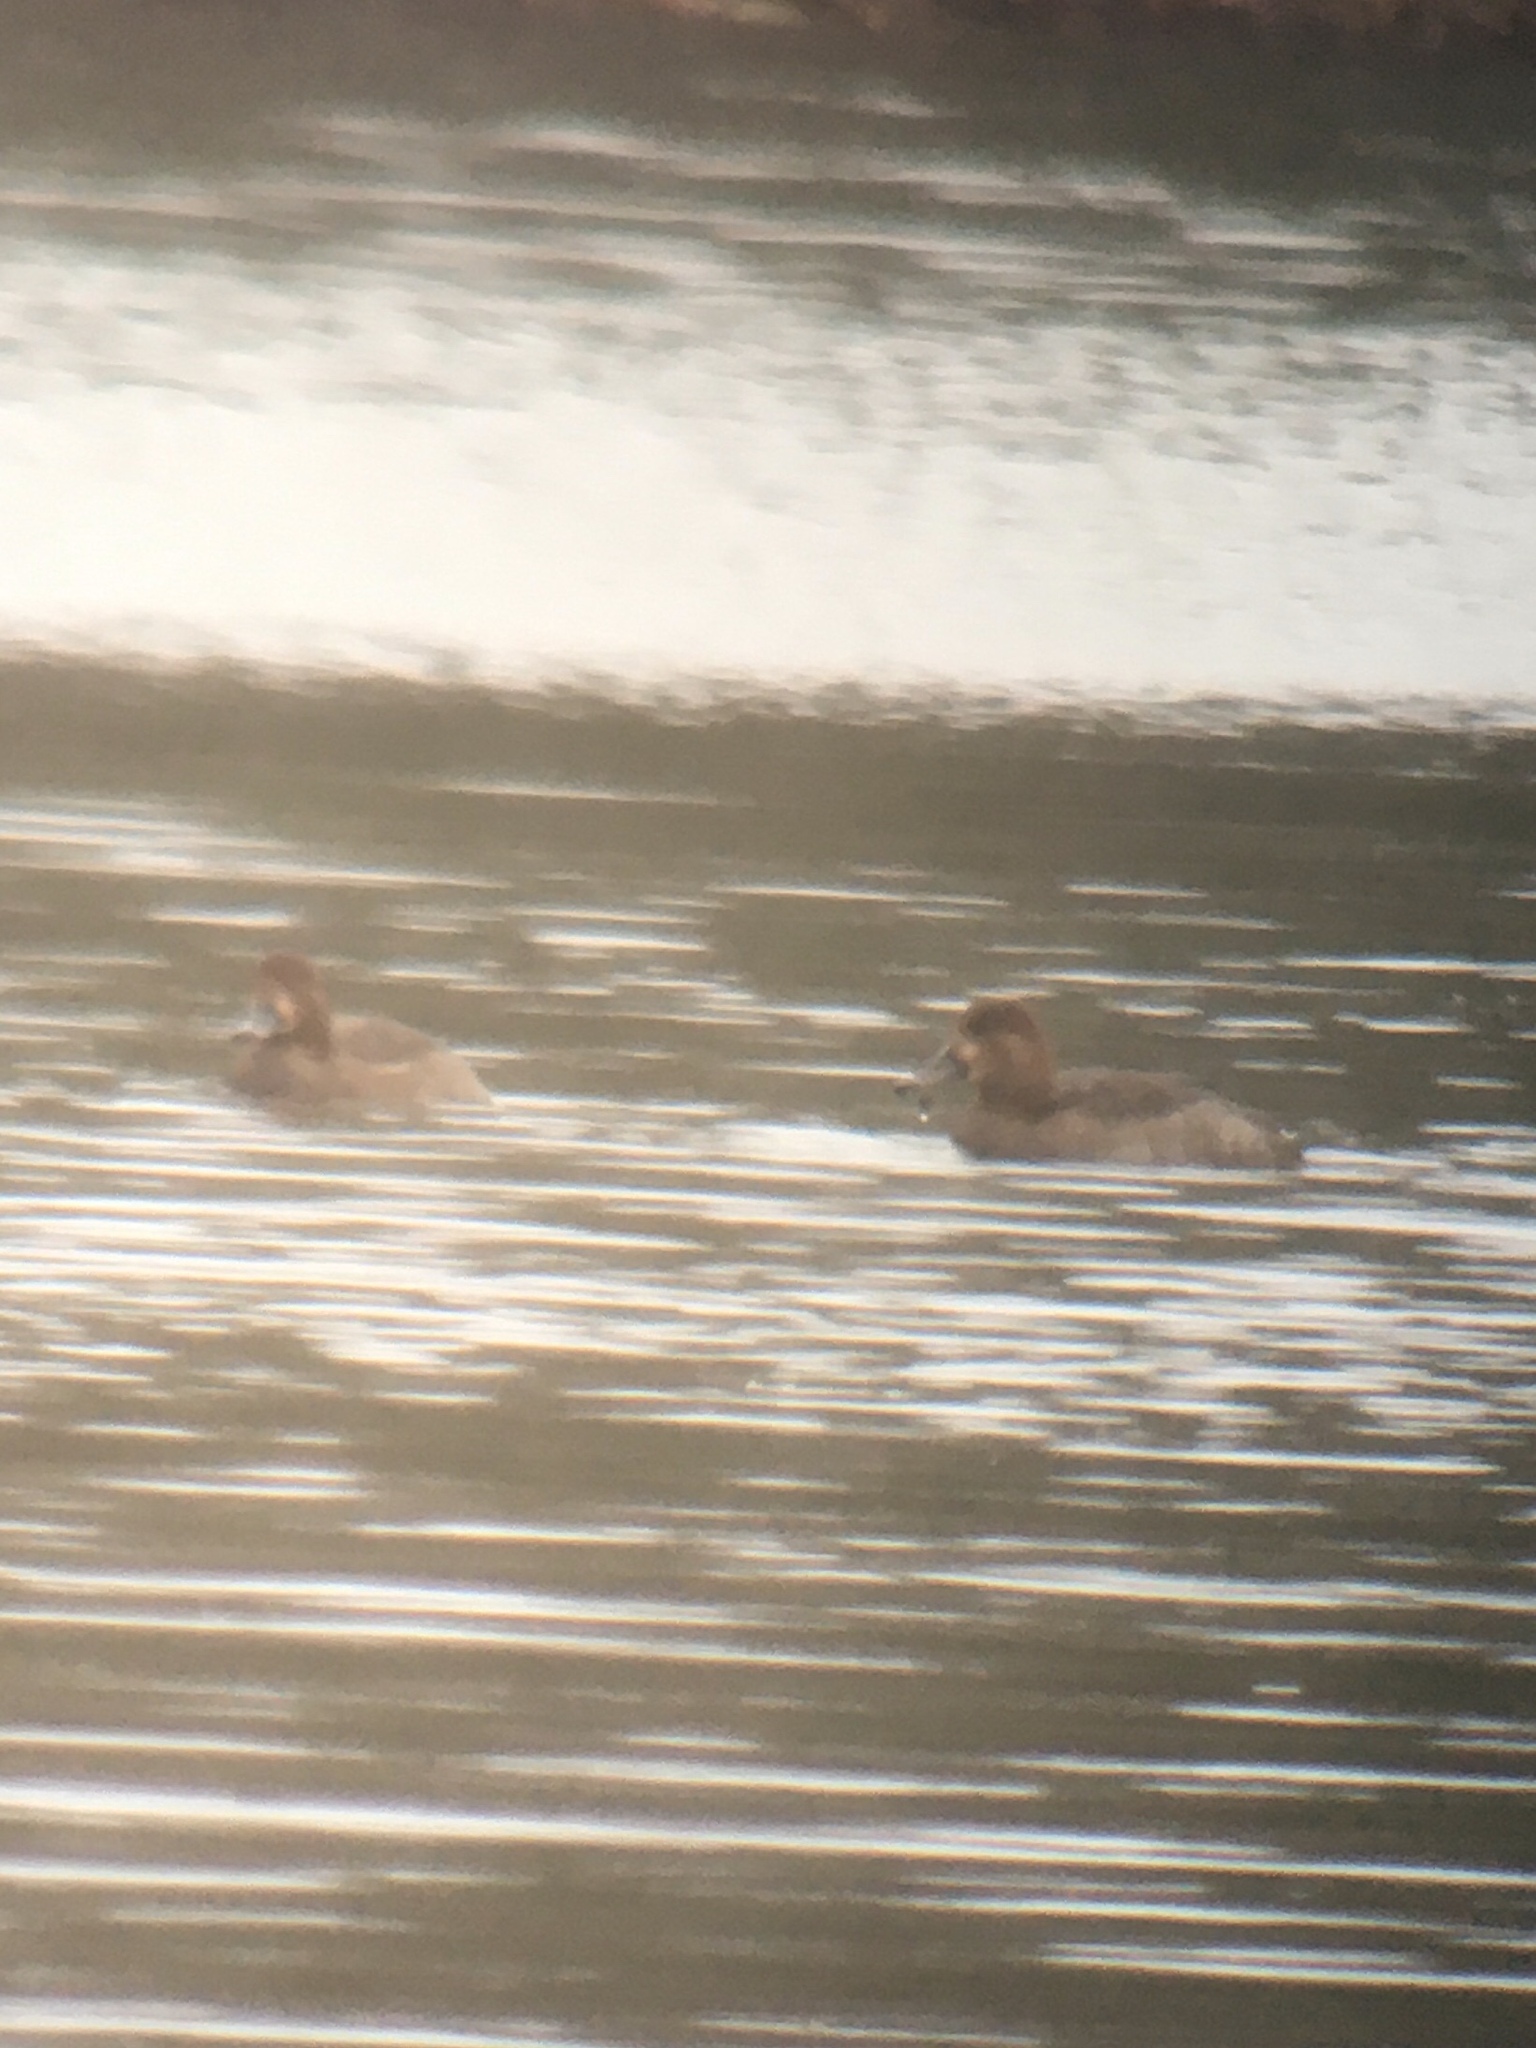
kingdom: Animalia
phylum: Chordata
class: Aves
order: Anseriformes
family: Anatidae
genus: Aythya
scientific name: Aythya americana
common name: Redhead
